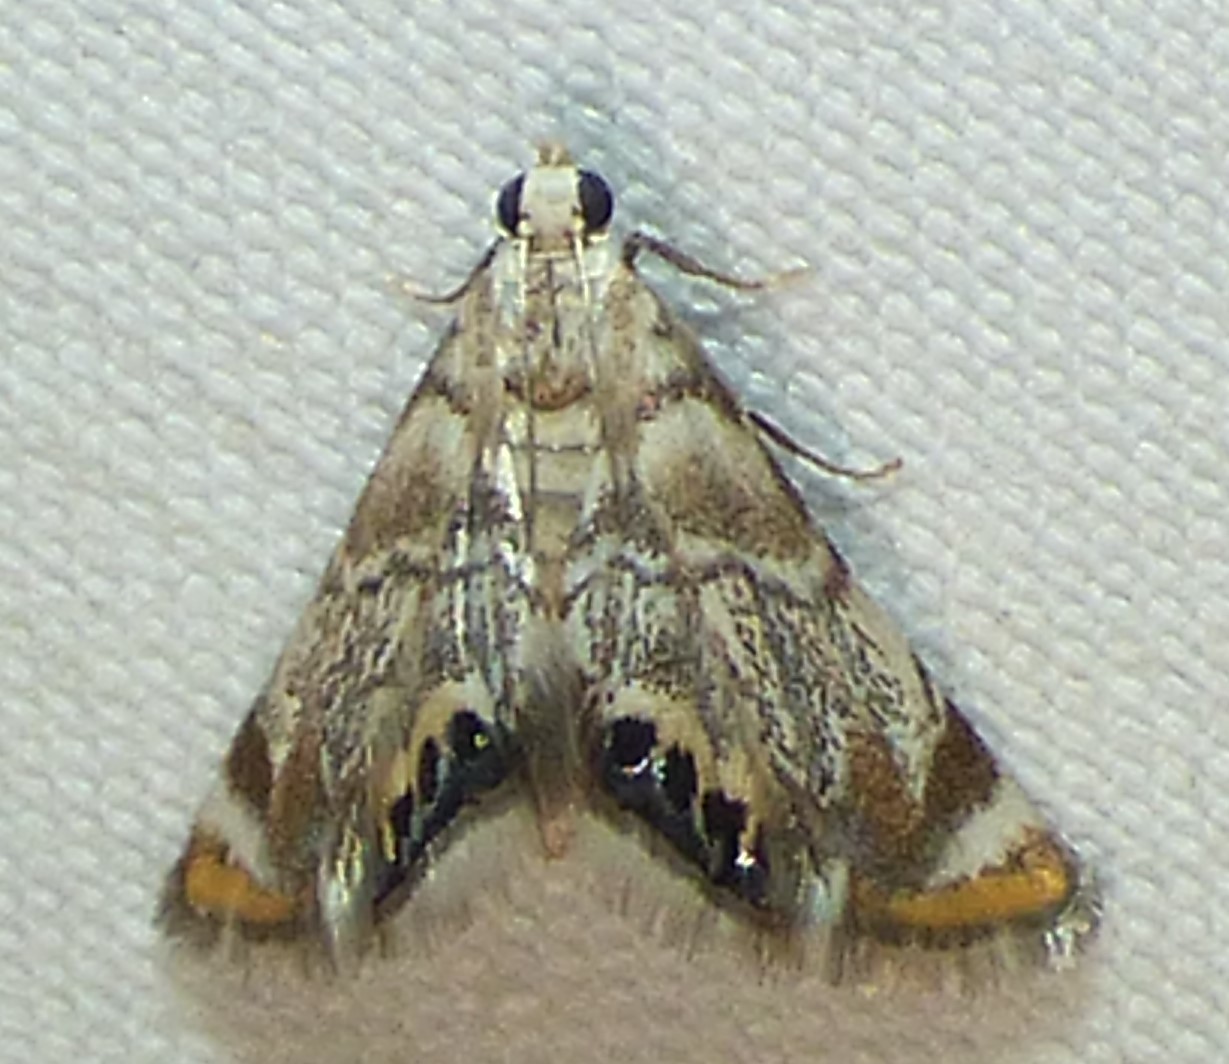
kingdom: Animalia
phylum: Arthropoda
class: Insecta
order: Lepidoptera
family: Crambidae
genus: Eoparargyractis
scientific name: Eoparargyractis irroratalis
